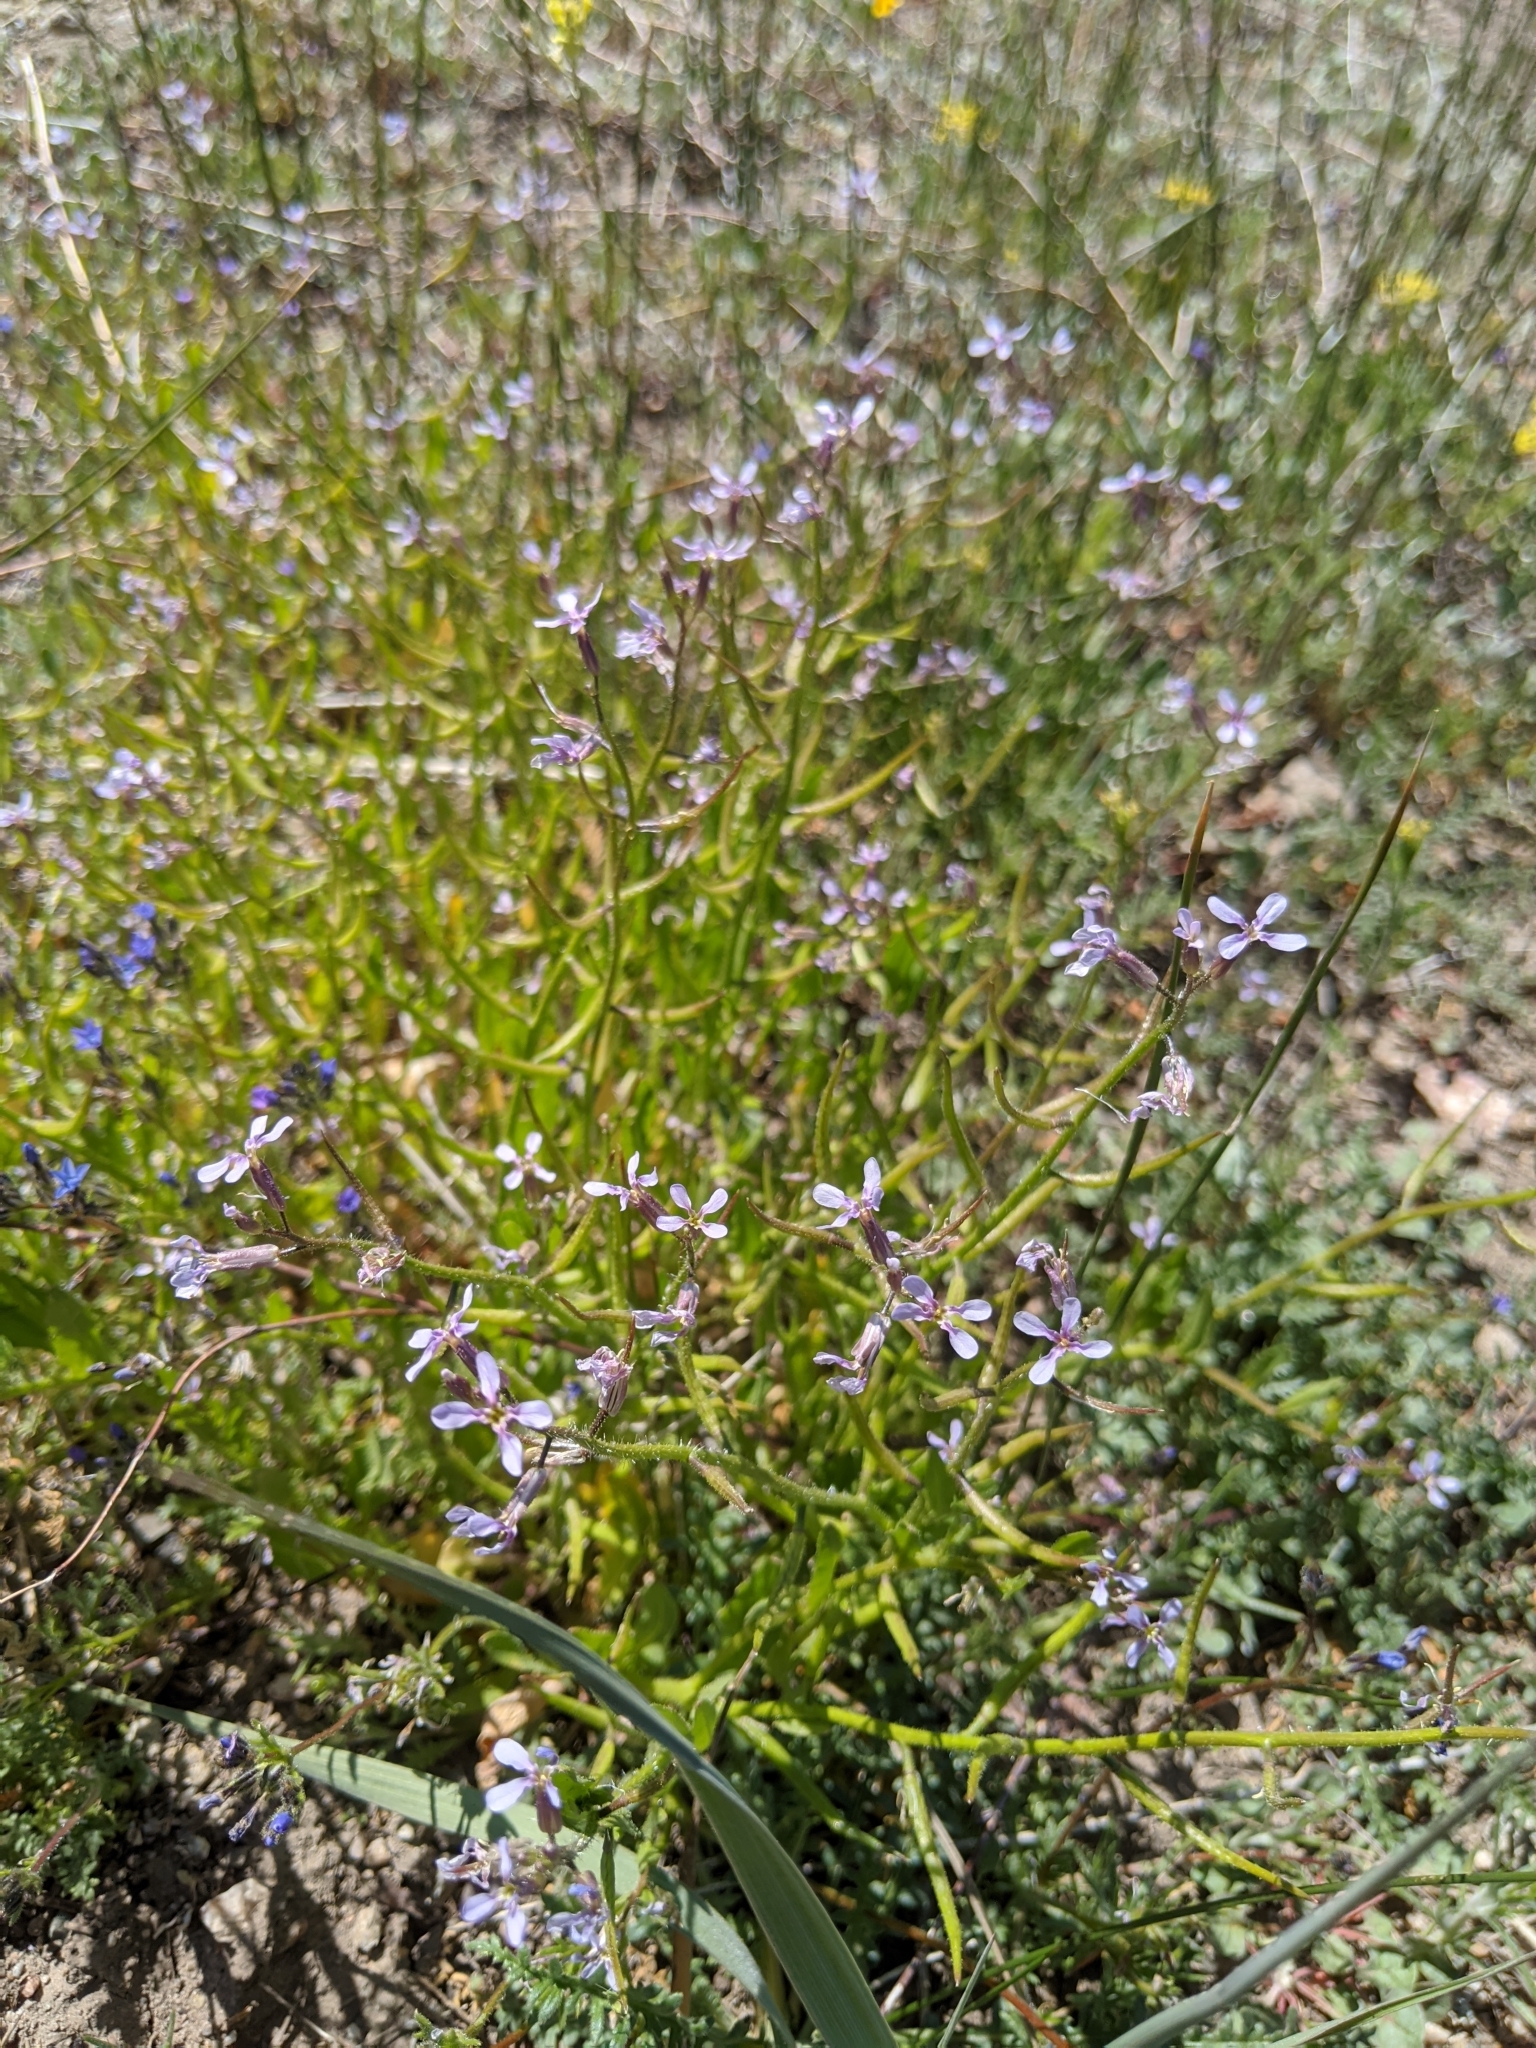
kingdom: Plantae
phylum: Tracheophyta
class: Magnoliopsida
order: Brassicales
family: Brassicaceae
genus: Chorispora
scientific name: Chorispora tenella
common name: Crossflower
